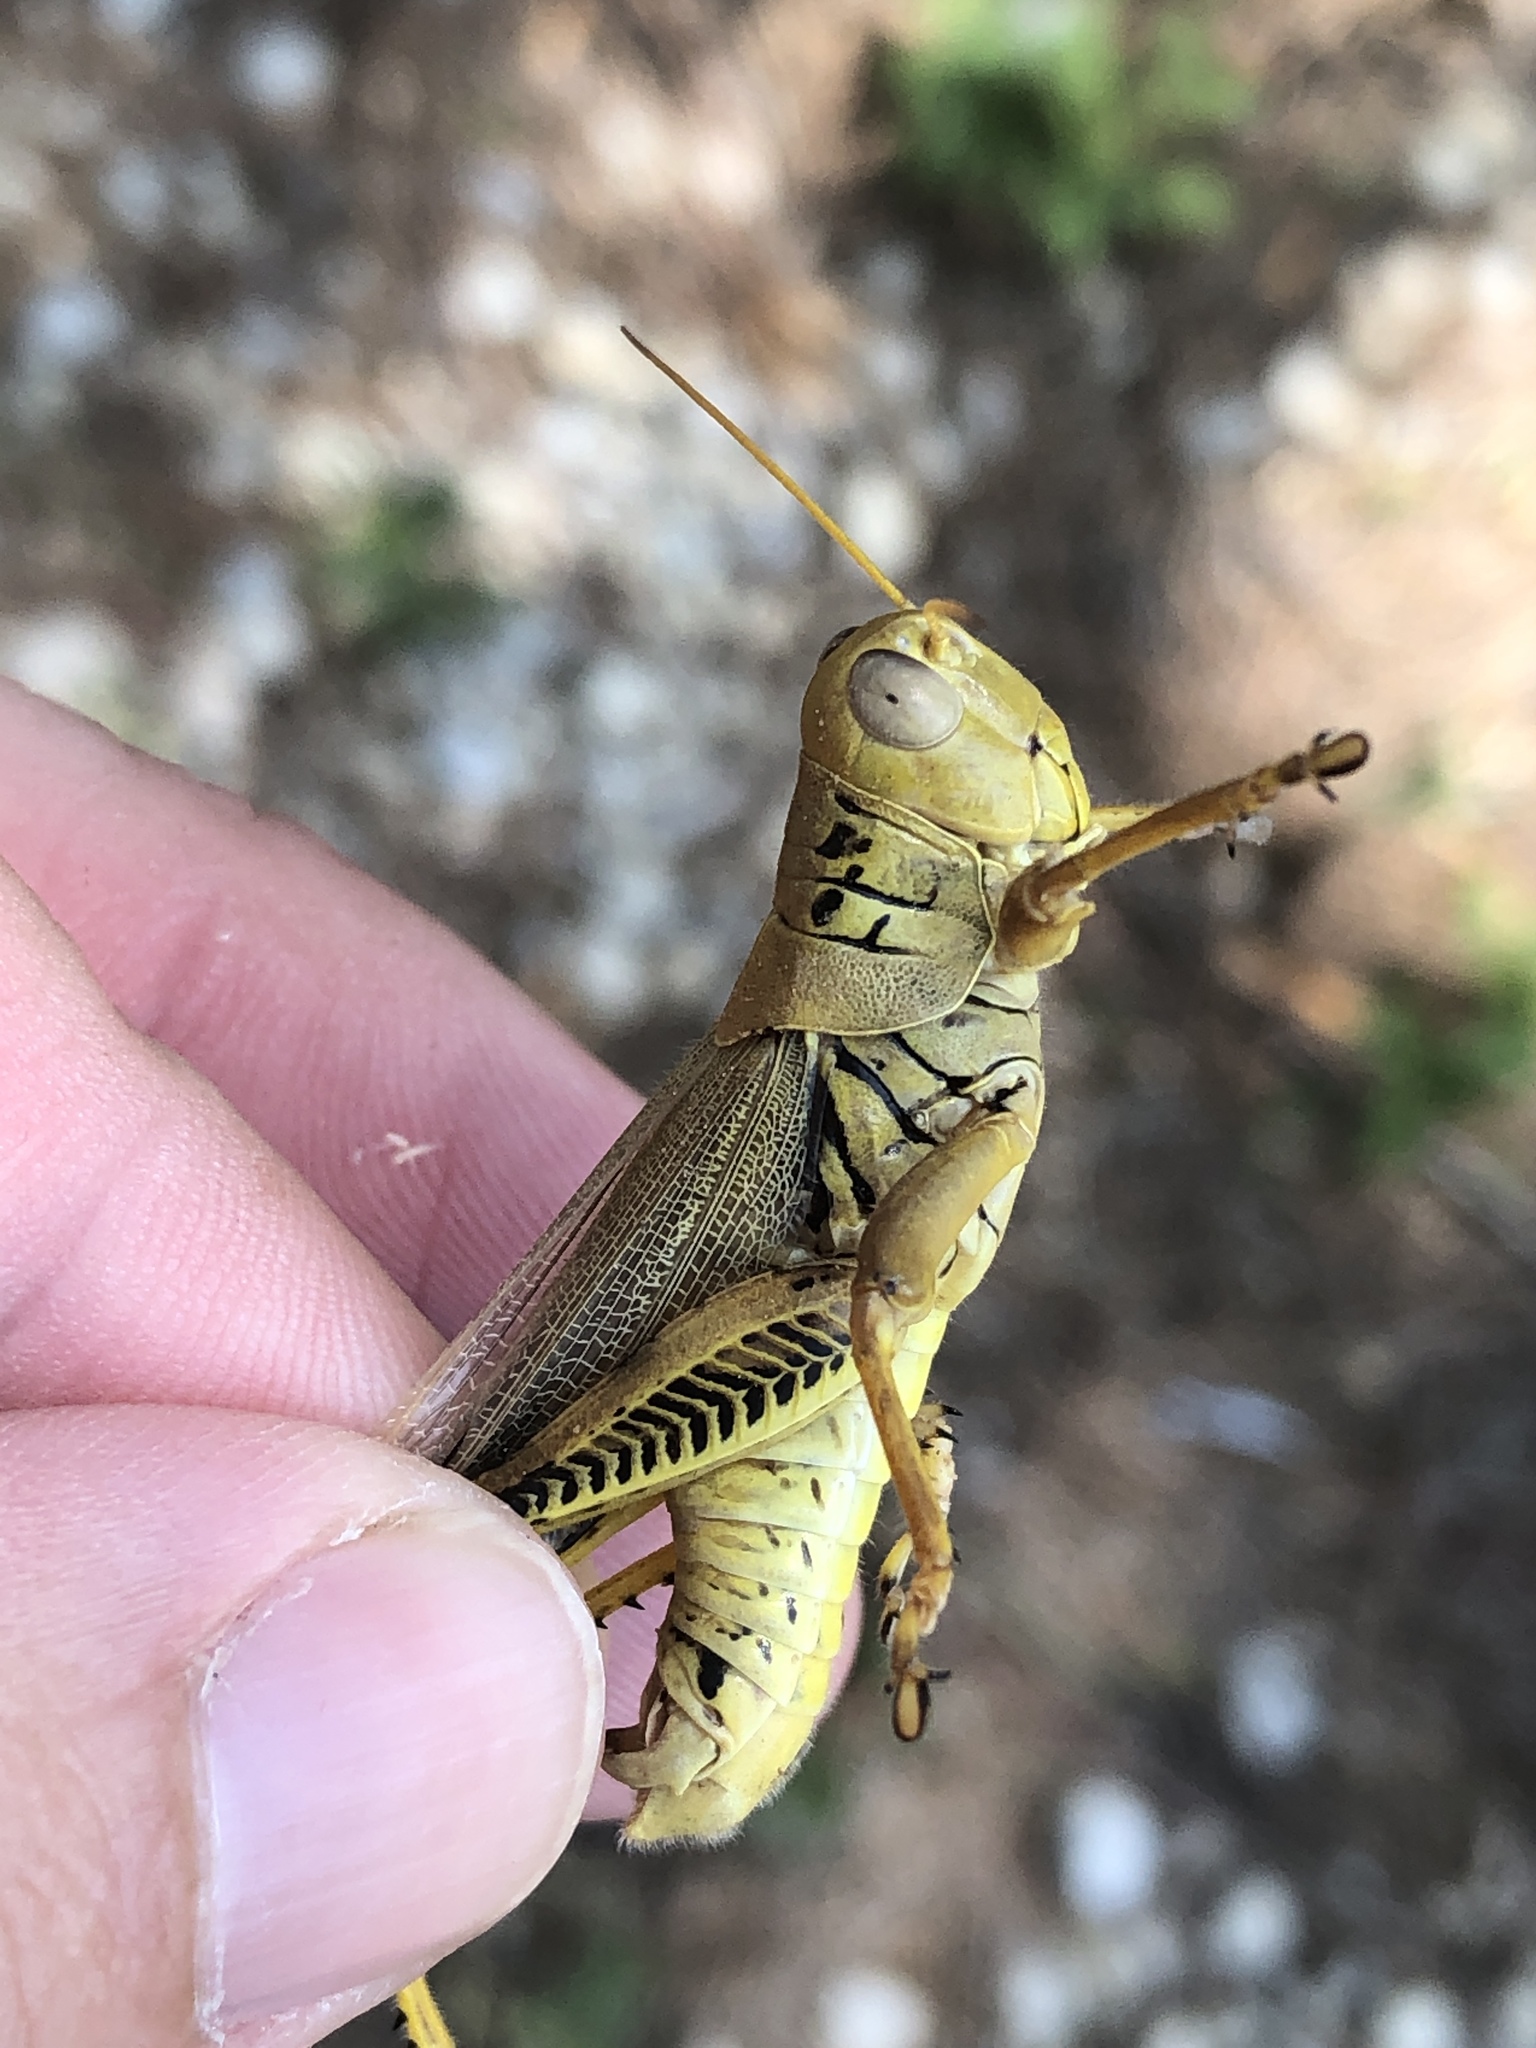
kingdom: Animalia
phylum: Arthropoda
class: Insecta
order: Orthoptera
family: Acrididae
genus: Melanoplus
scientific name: Melanoplus differentialis
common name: Differential grasshopper
